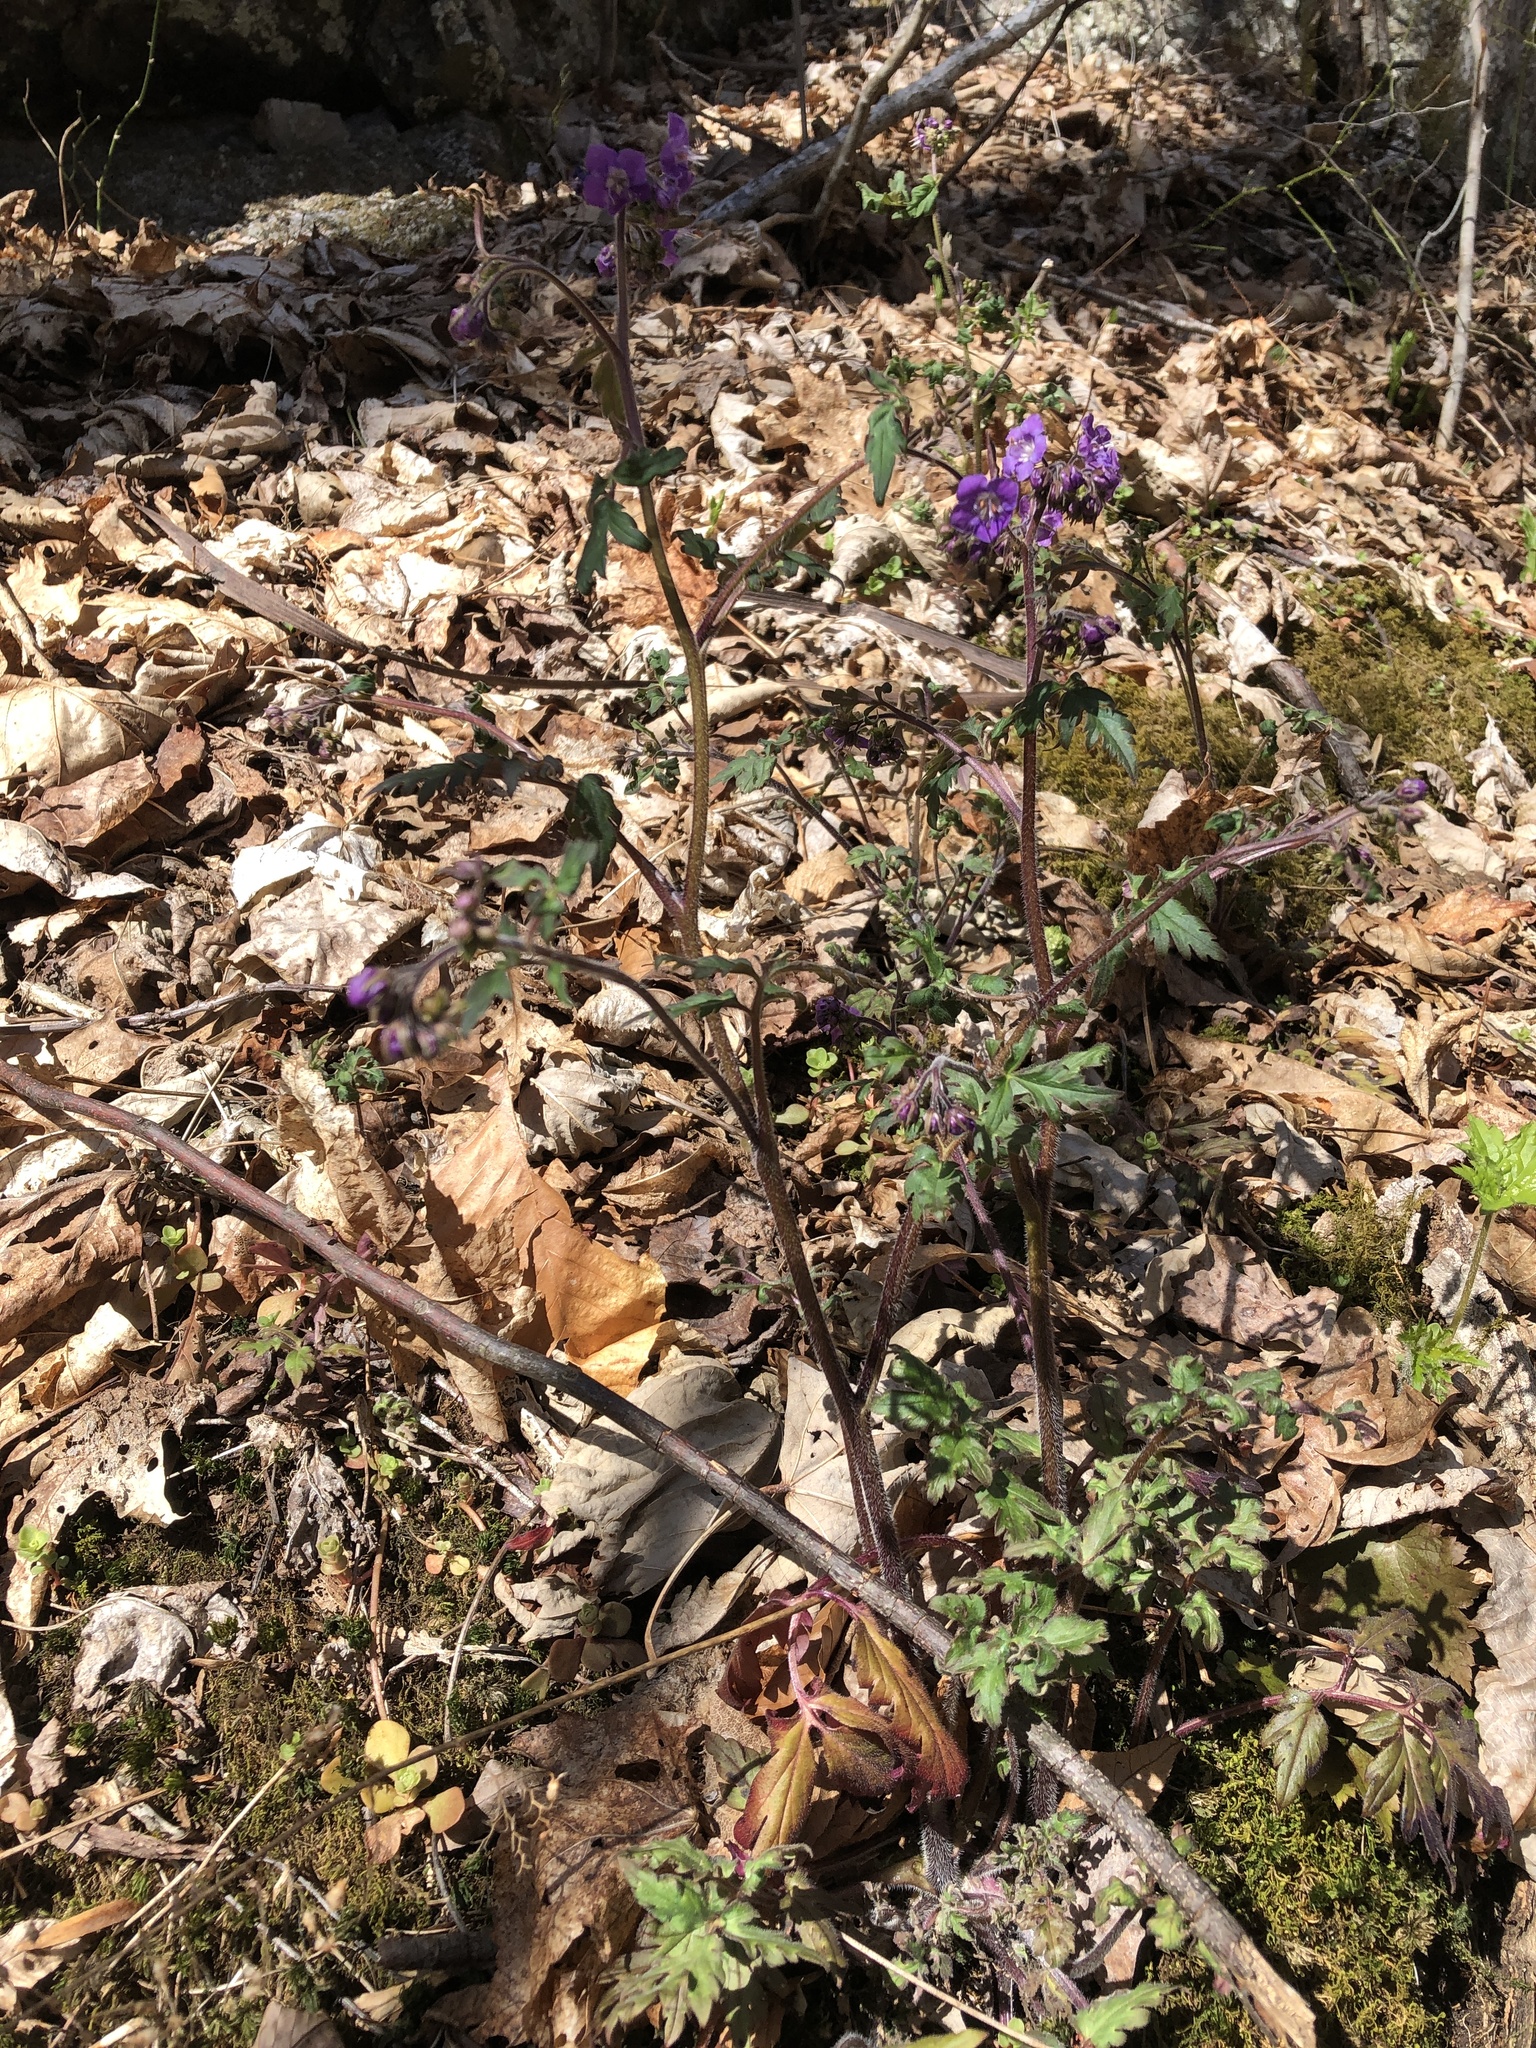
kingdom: Plantae
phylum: Tracheophyta
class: Magnoliopsida
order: Boraginales
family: Hydrophyllaceae
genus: Phacelia
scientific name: Phacelia bipinnatifida
